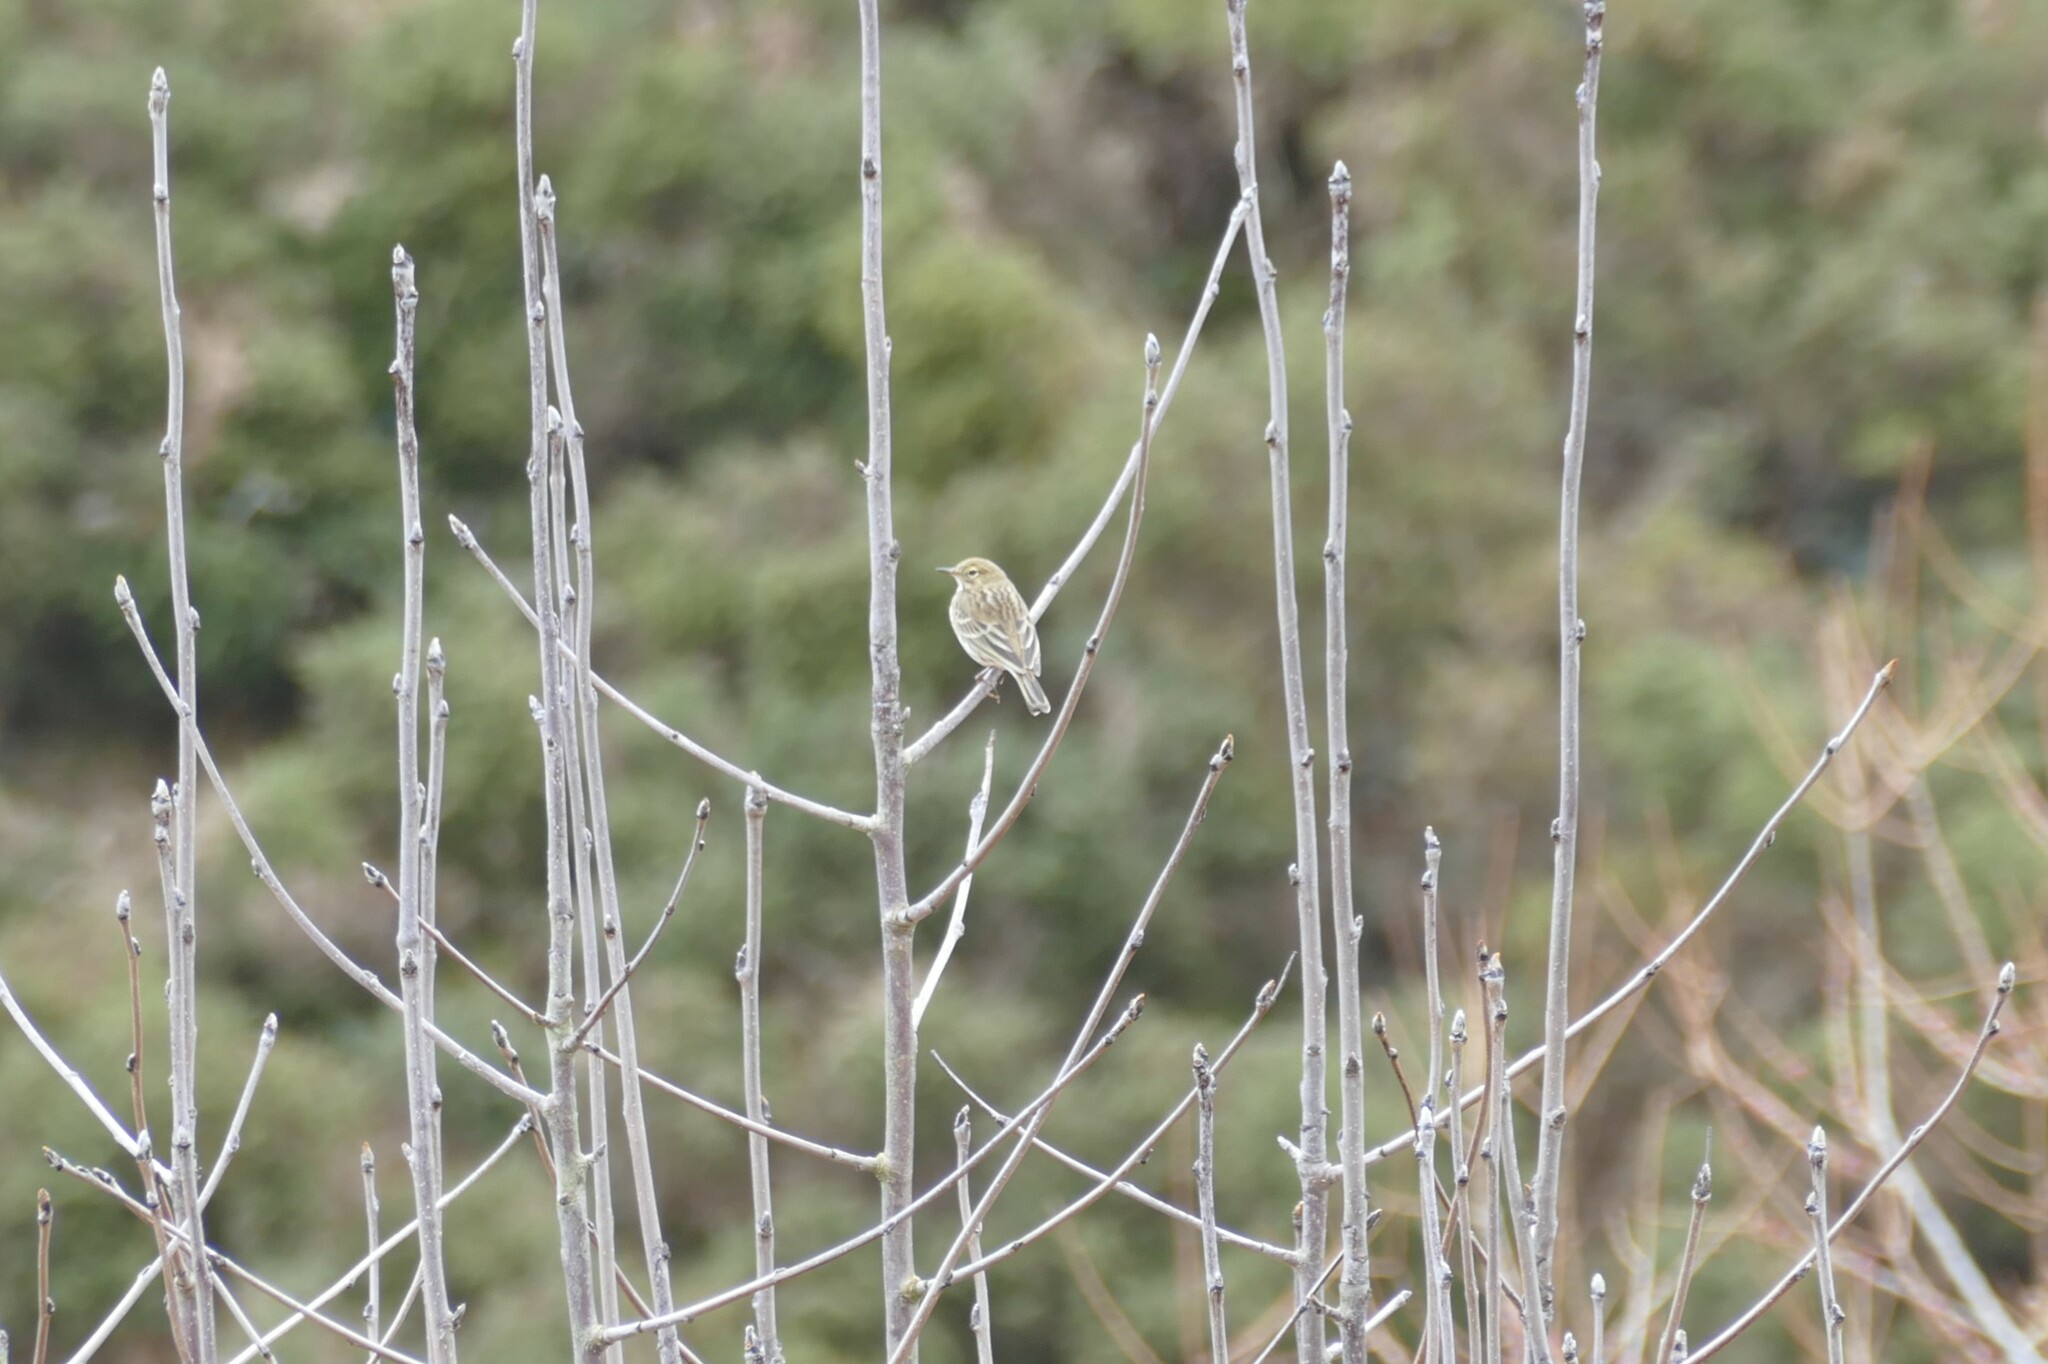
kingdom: Animalia
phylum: Chordata
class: Aves
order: Passeriformes
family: Motacillidae
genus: Anthus
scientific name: Anthus pratensis
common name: Meadow pipit
